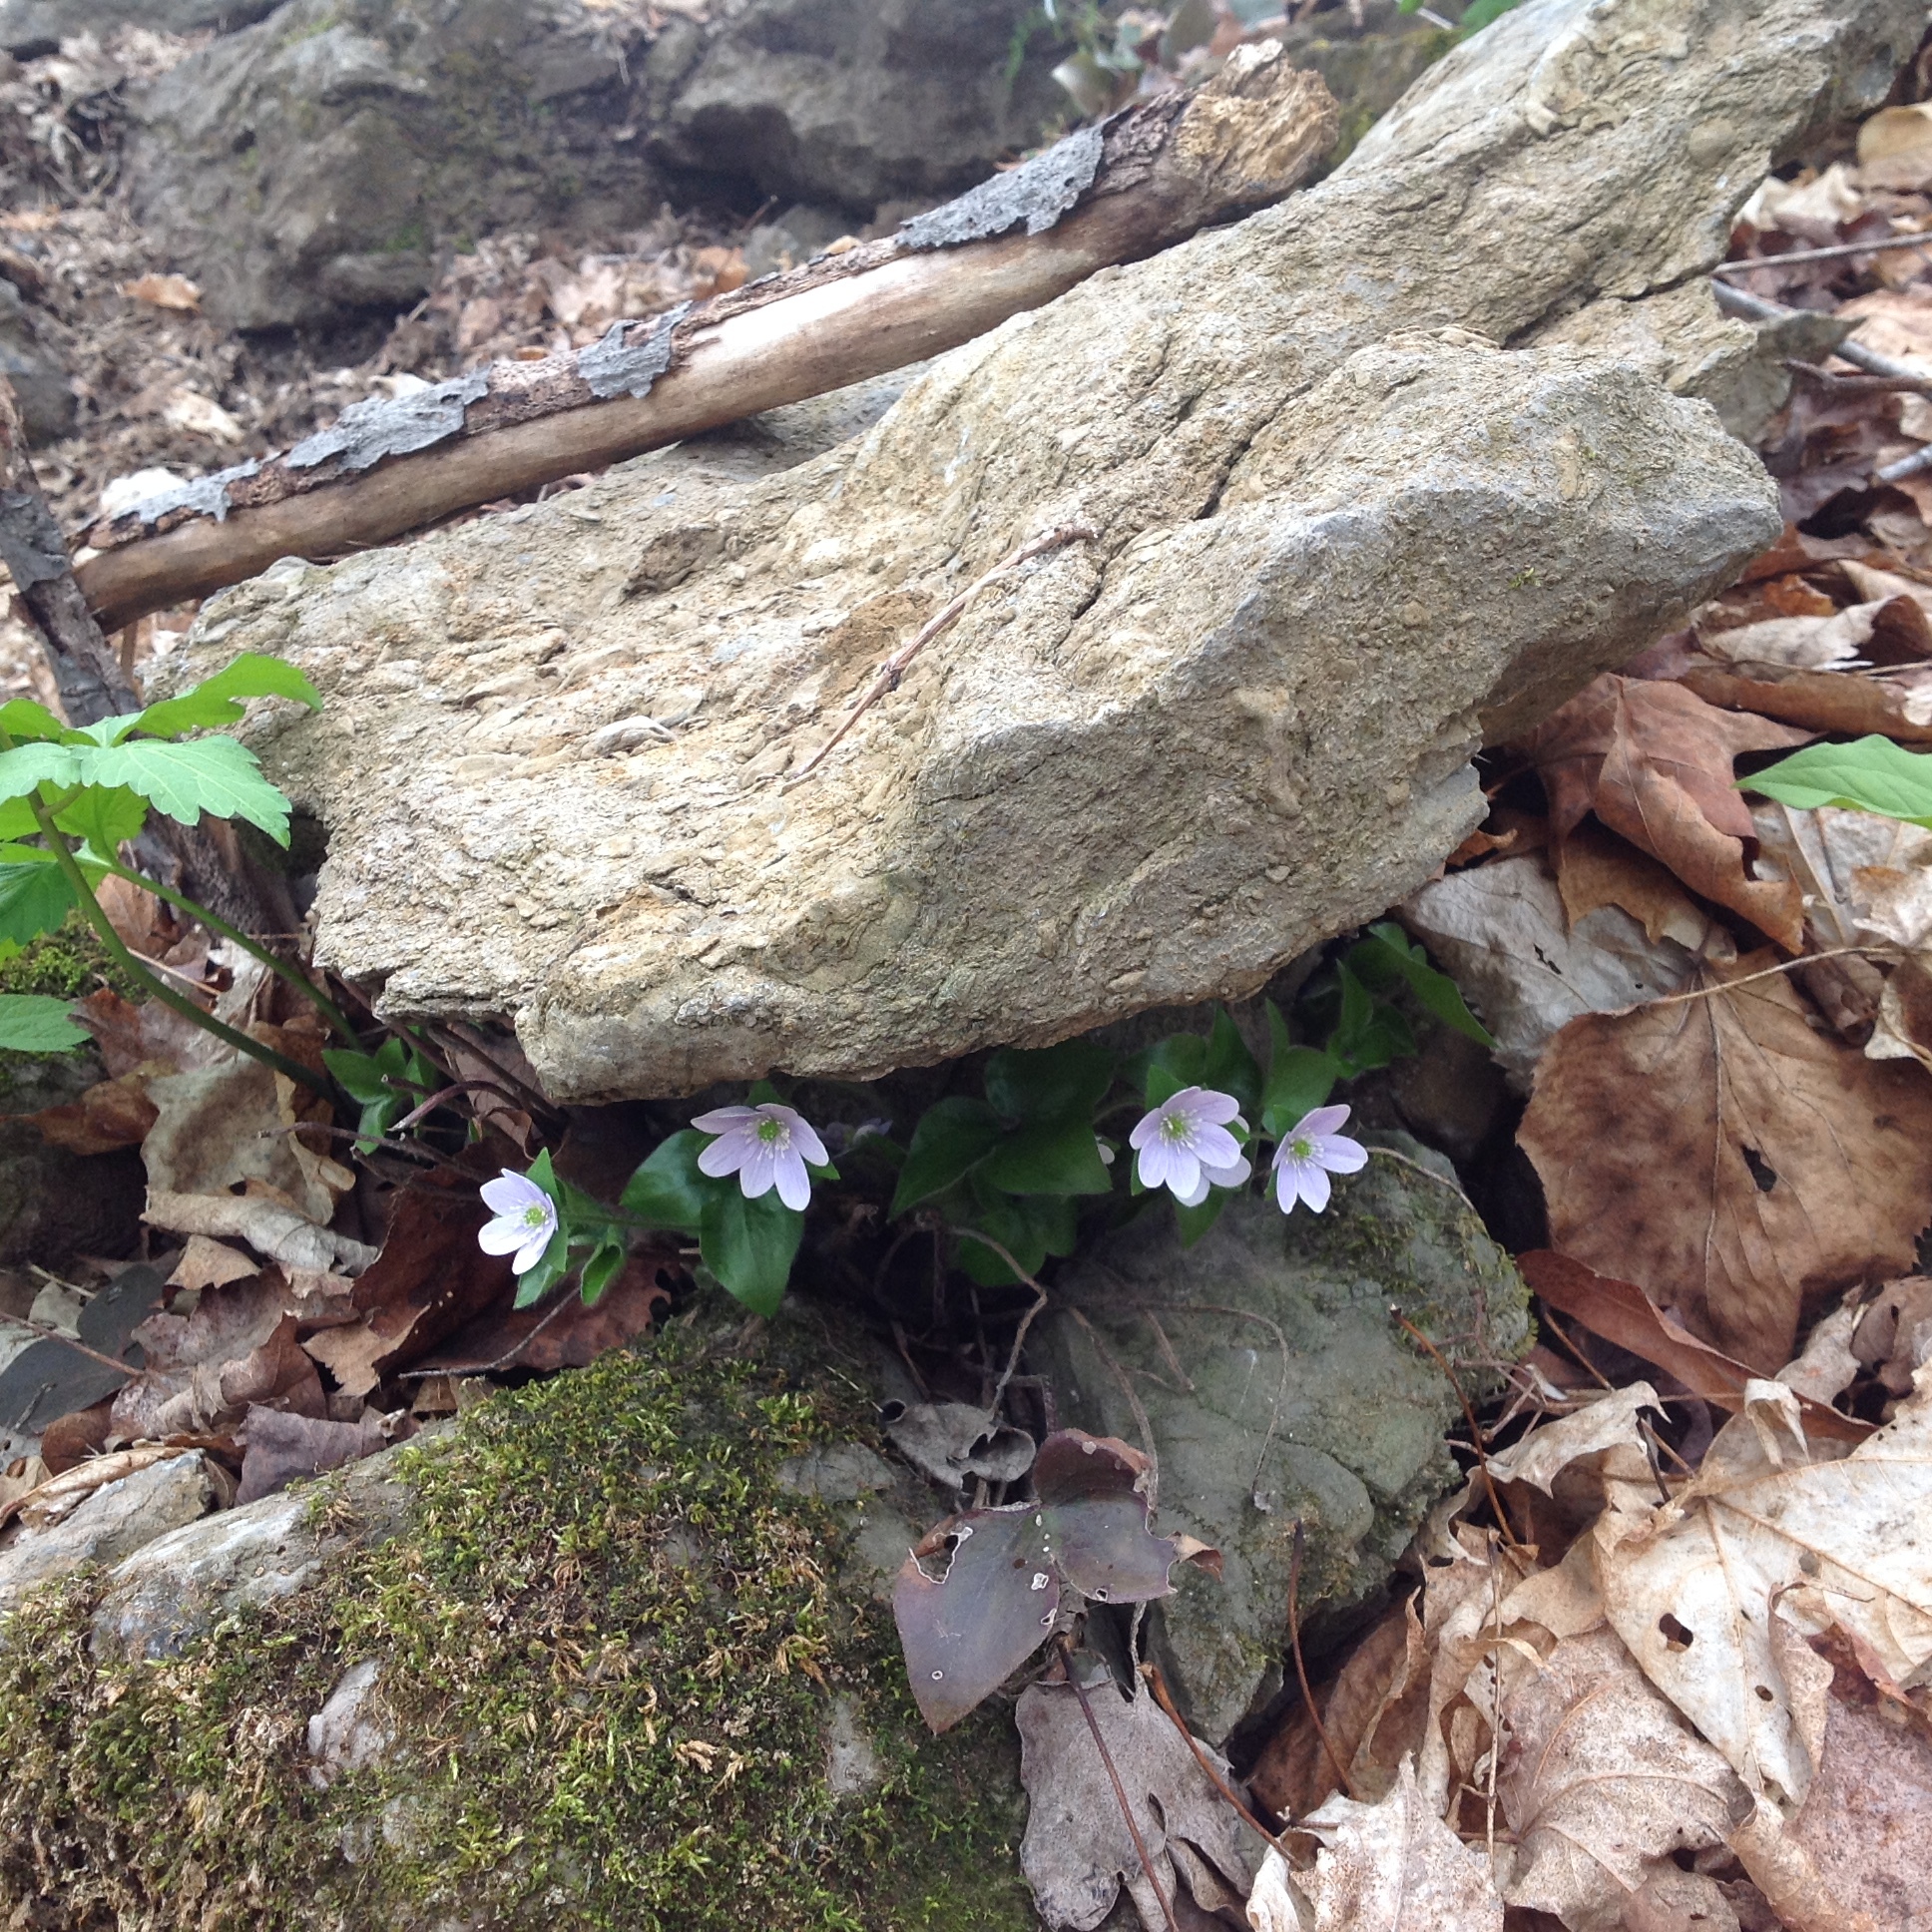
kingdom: Plantae
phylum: Tracheophyta
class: Magnoliopsida
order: Ranunculales
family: Ranunculaceae
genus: Hepatica
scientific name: Hepatica acutiloba
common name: Sharp-lobed hepatica
